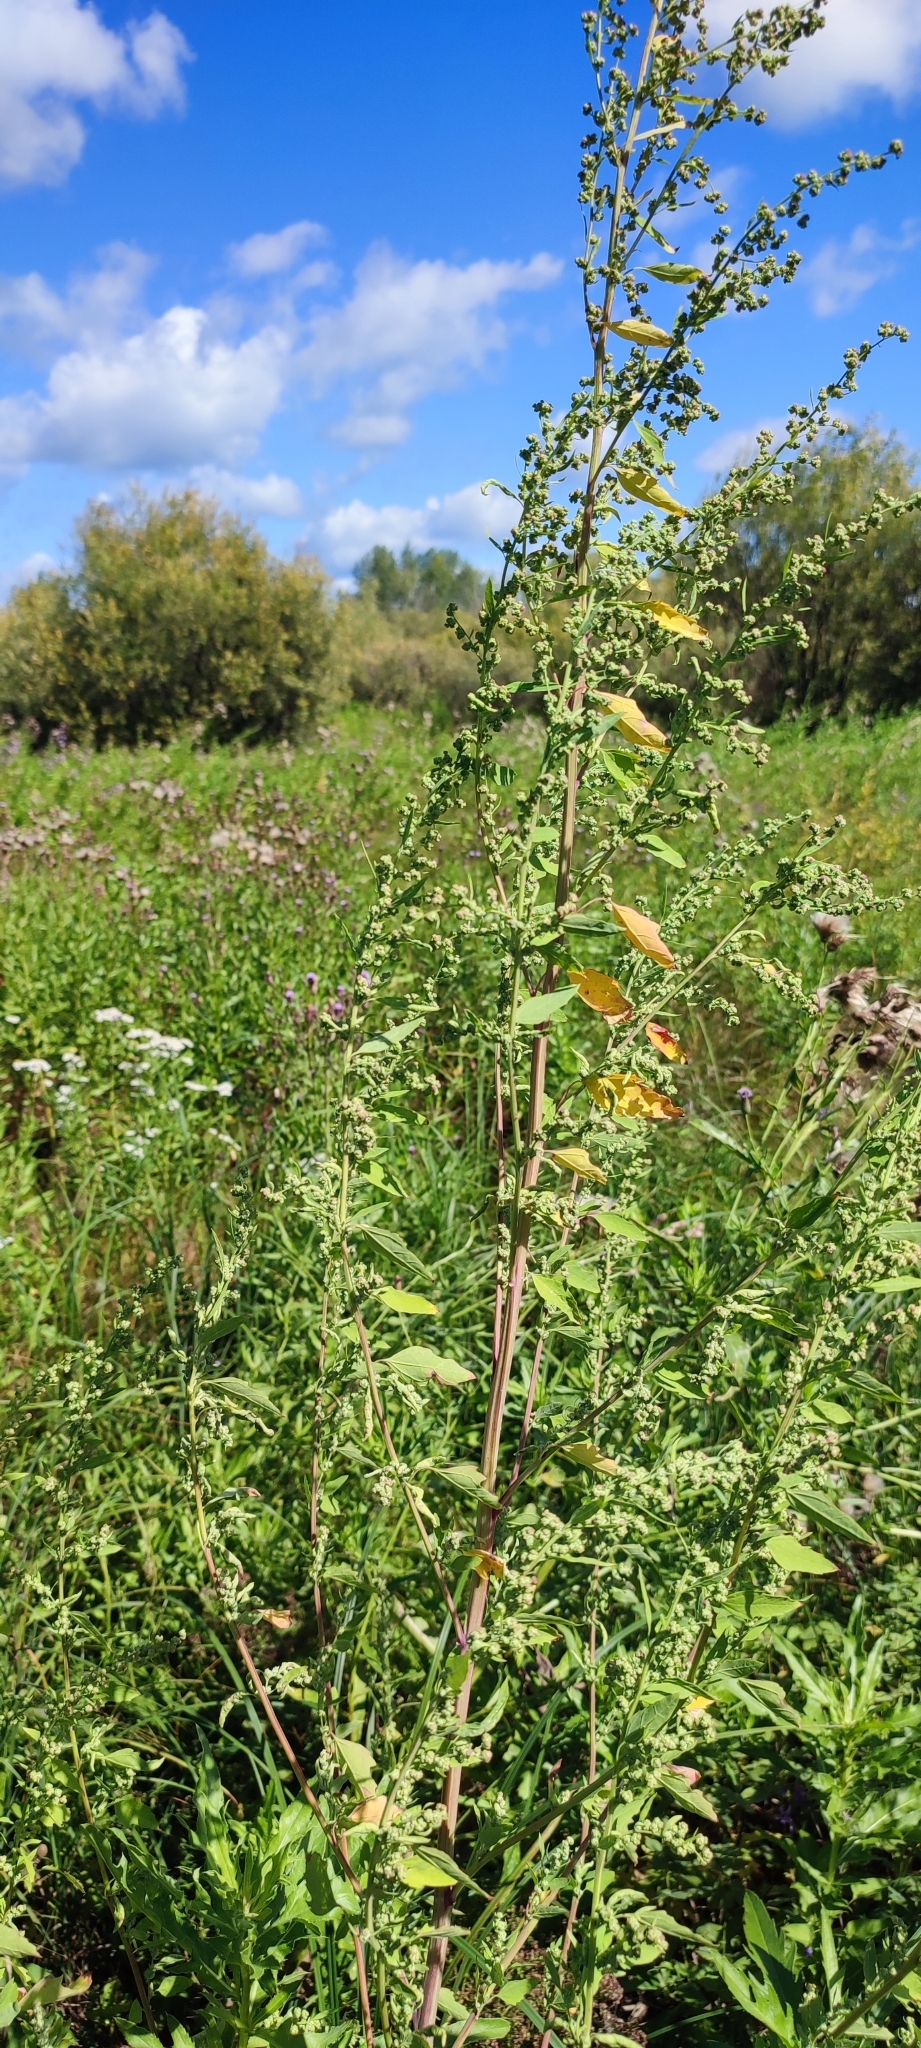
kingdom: Plantae
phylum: Tracheophyta
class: Magnoliopsida
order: Caryophyllales
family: Amaranthaceae
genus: Chenopodium
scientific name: Chenopodium album
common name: Fat-hen
